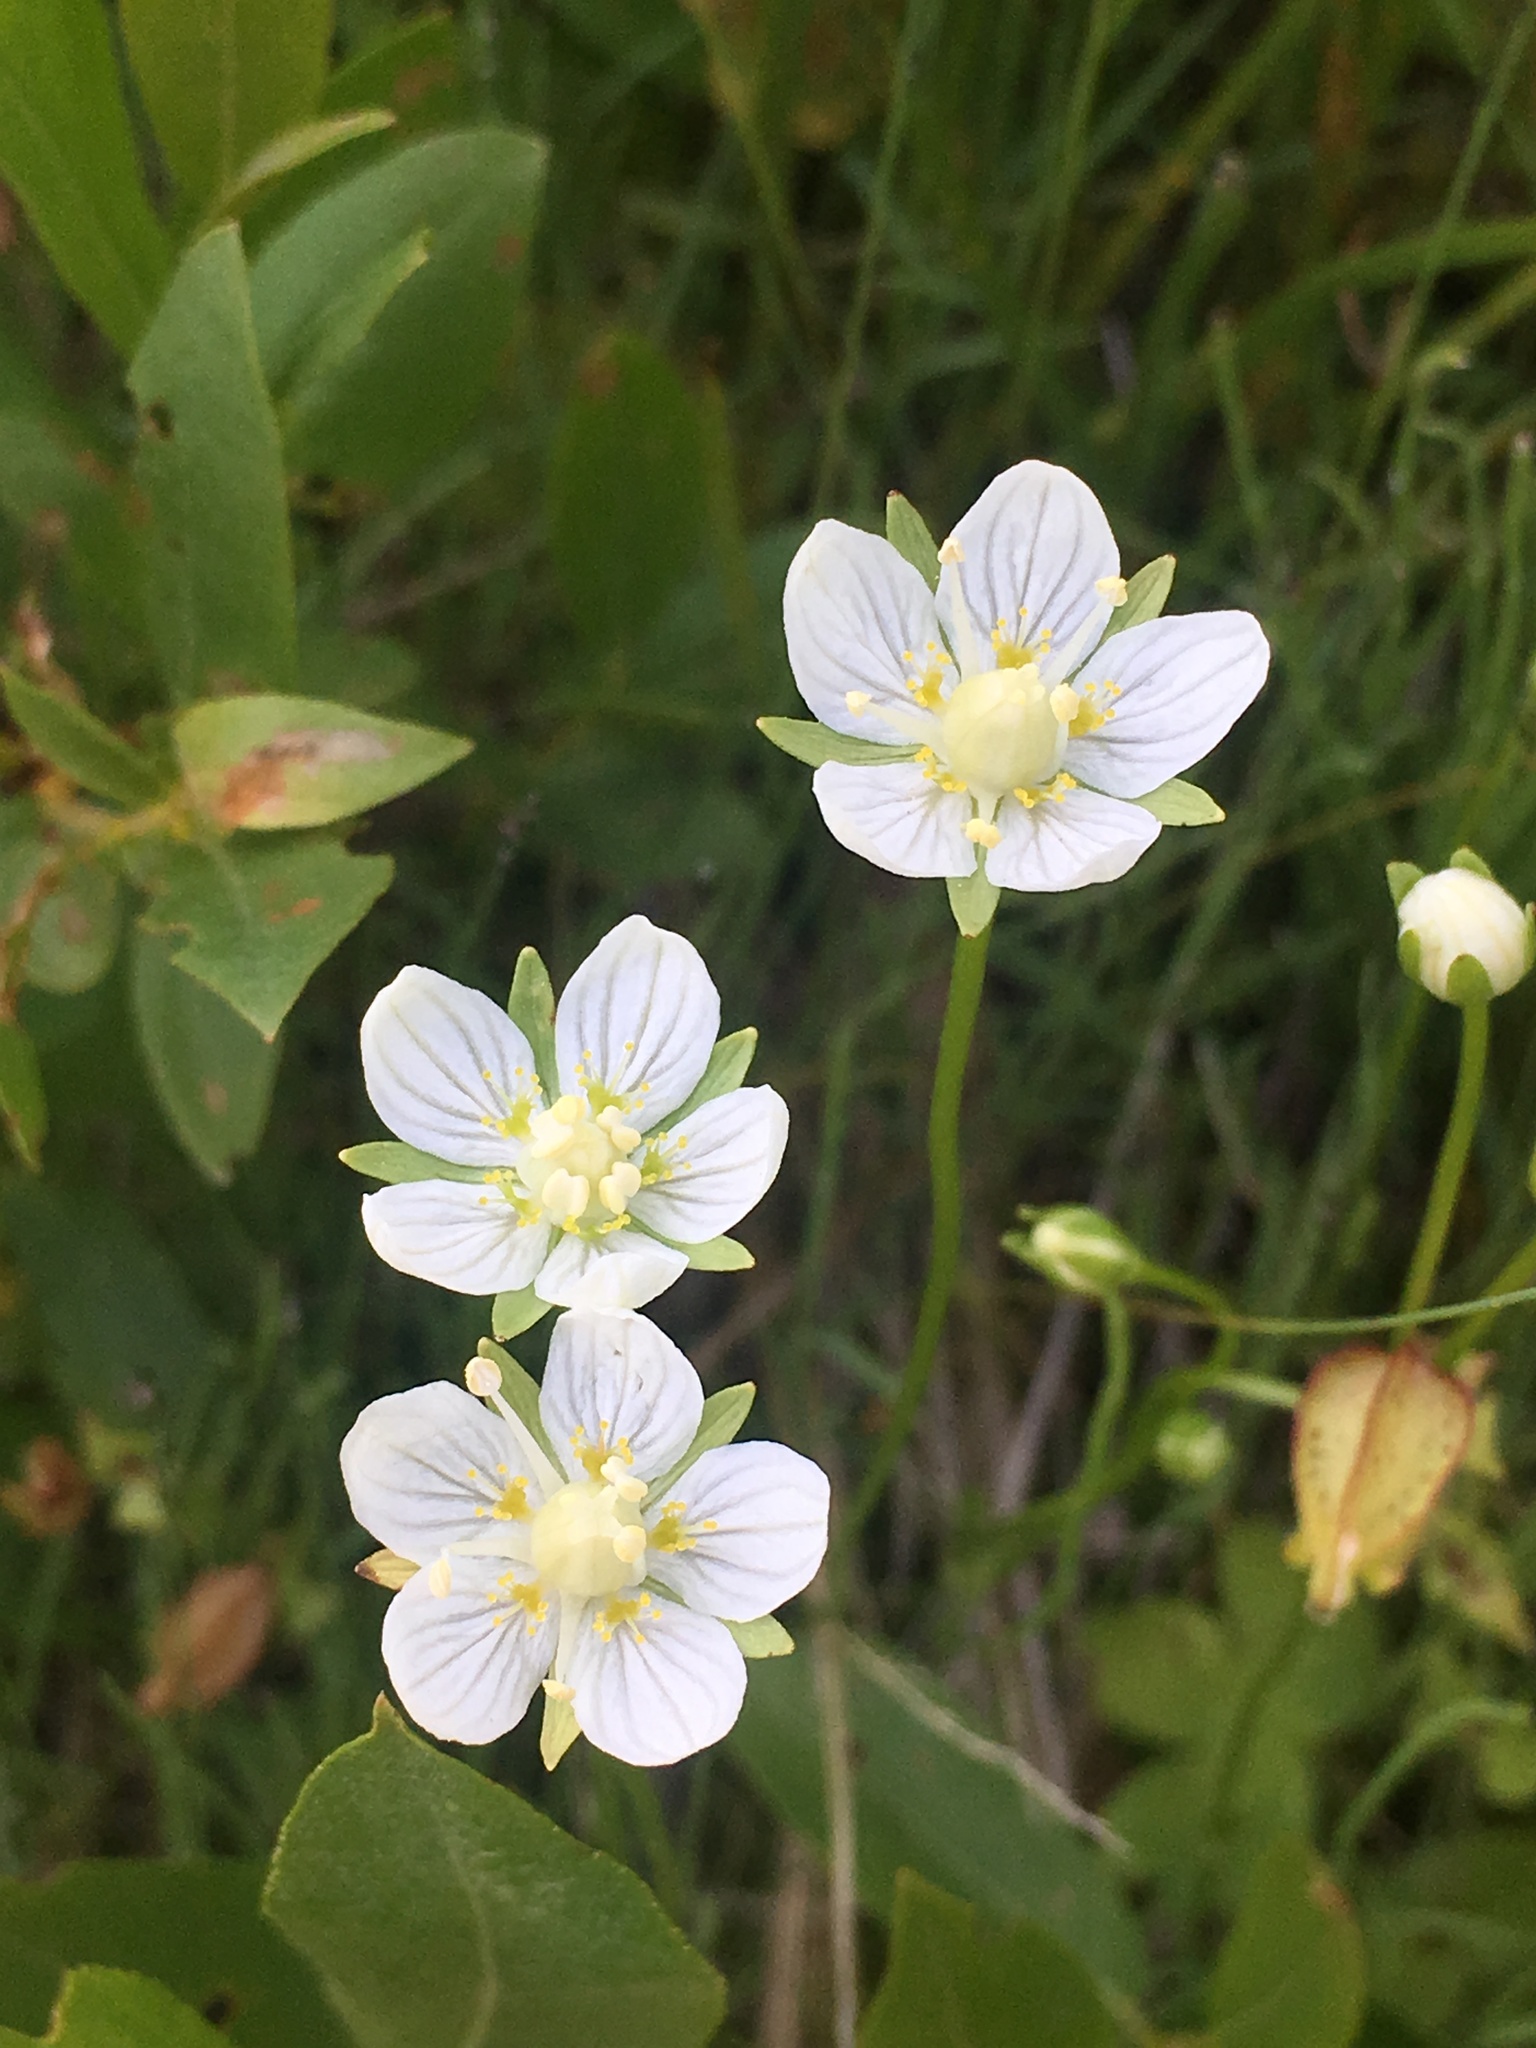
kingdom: Plantae
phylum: Tracheophyta
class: Magnoliopsida
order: Celastrales
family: Parnassiaceae
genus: Parnassia
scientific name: Parnassia palustris
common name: Grass-of-parnassus
